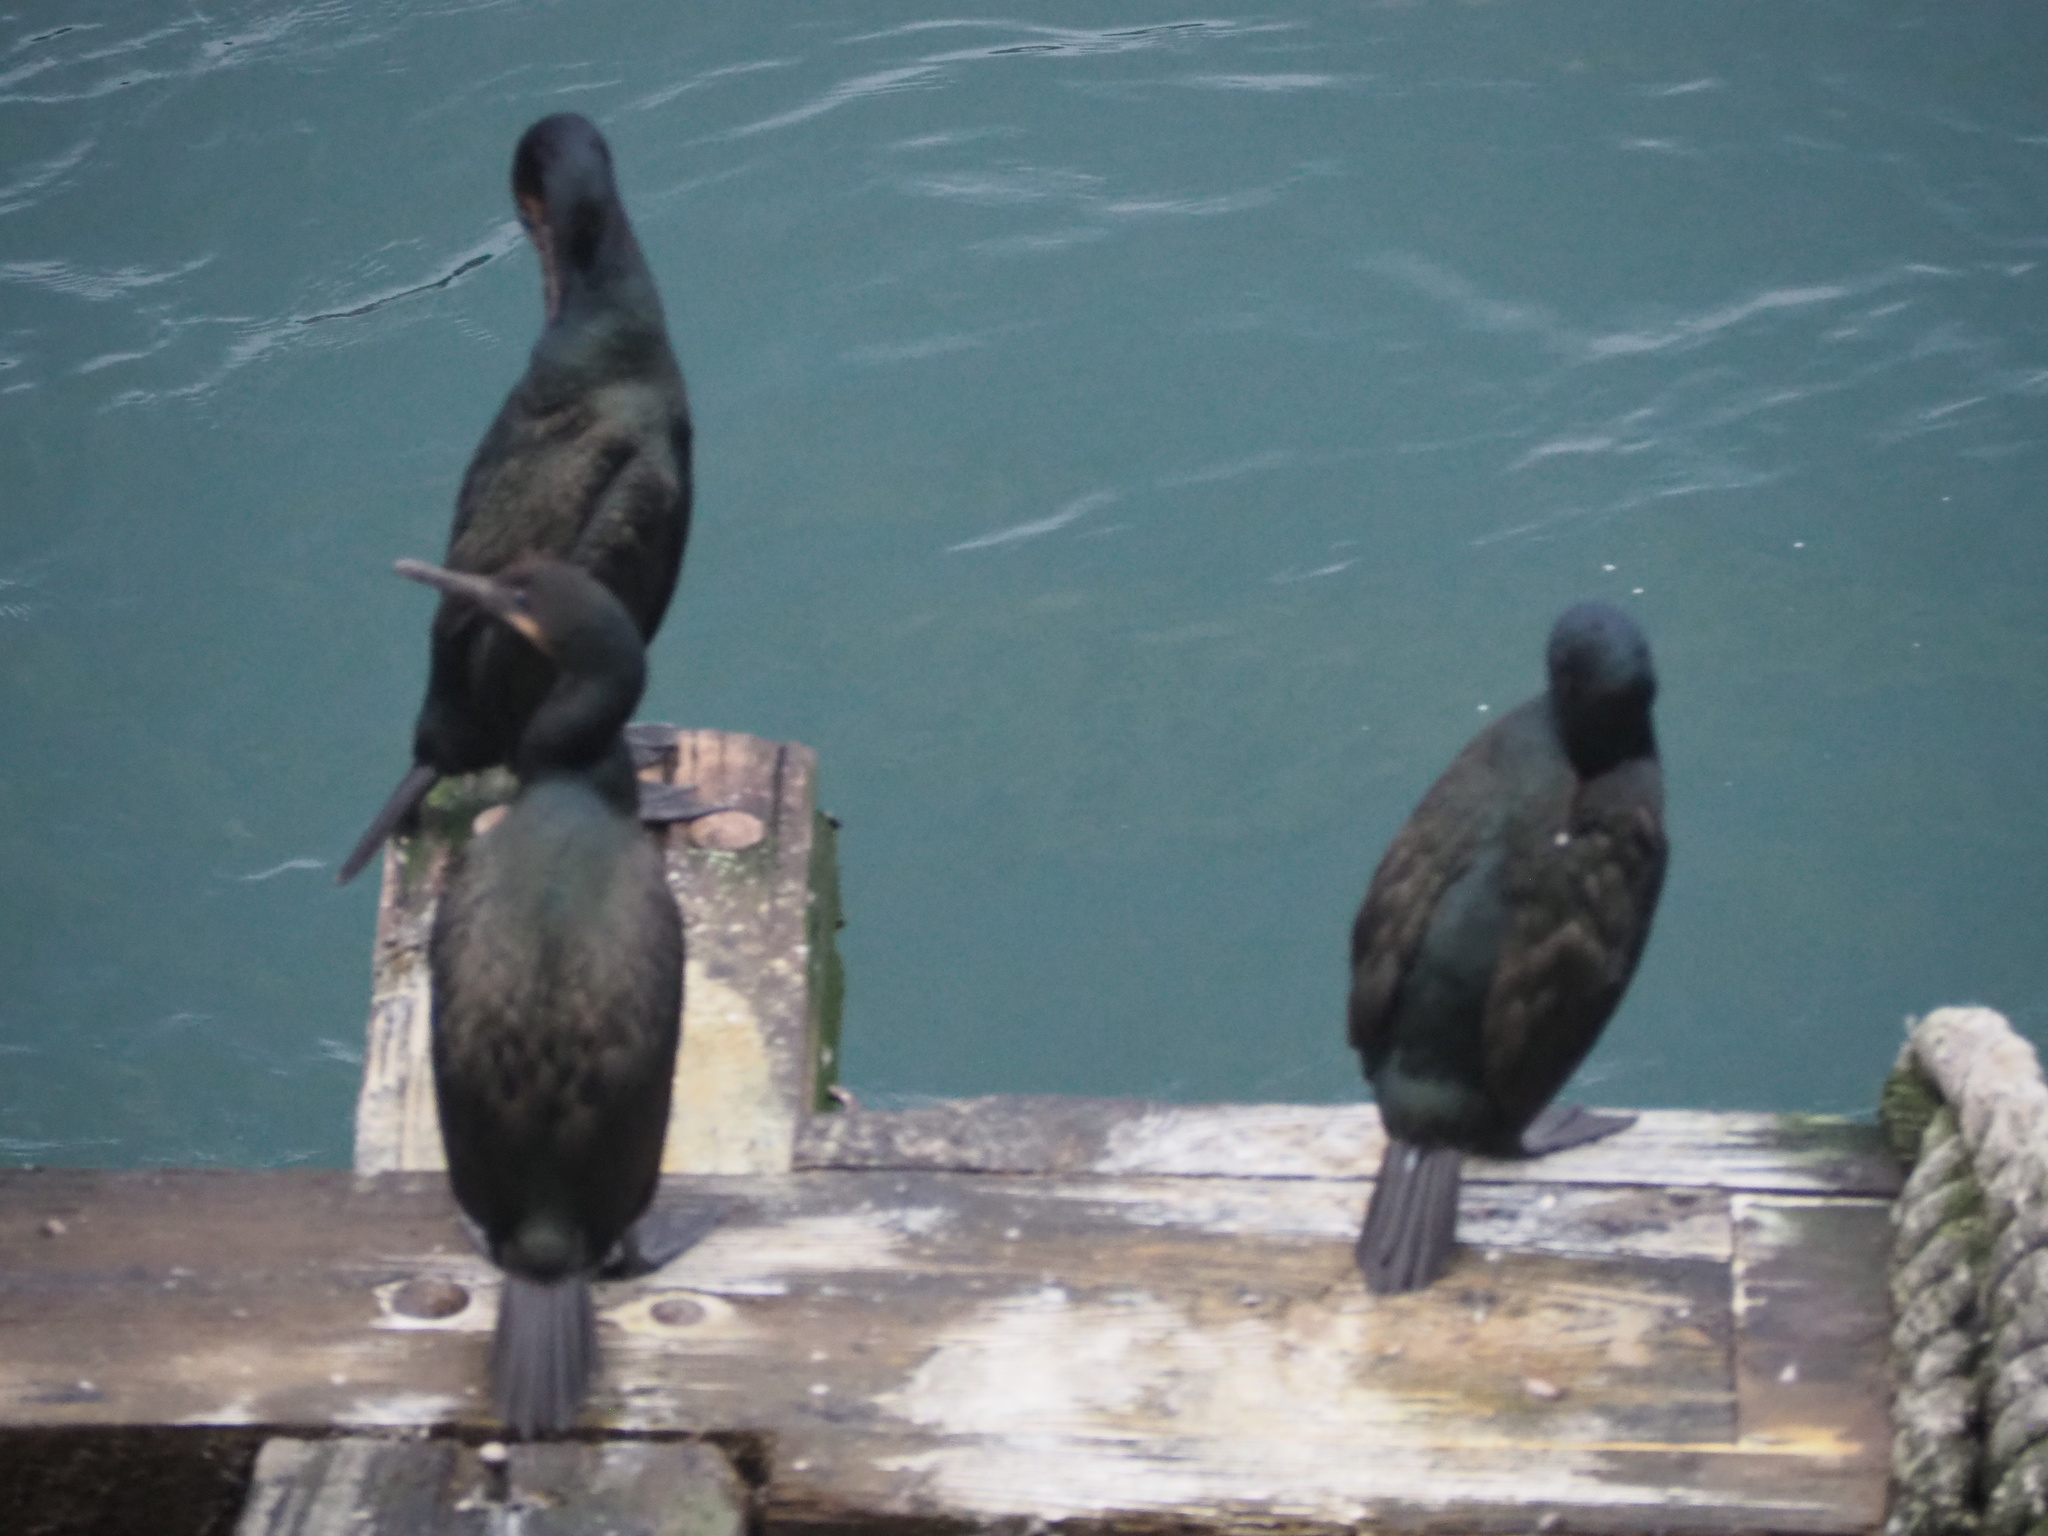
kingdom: Animalia
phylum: Chordata
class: Aves
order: Suliformes
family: Phalacrocoracidae
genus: Urile
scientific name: Urile penicillatus
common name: Brandt's cormorant
